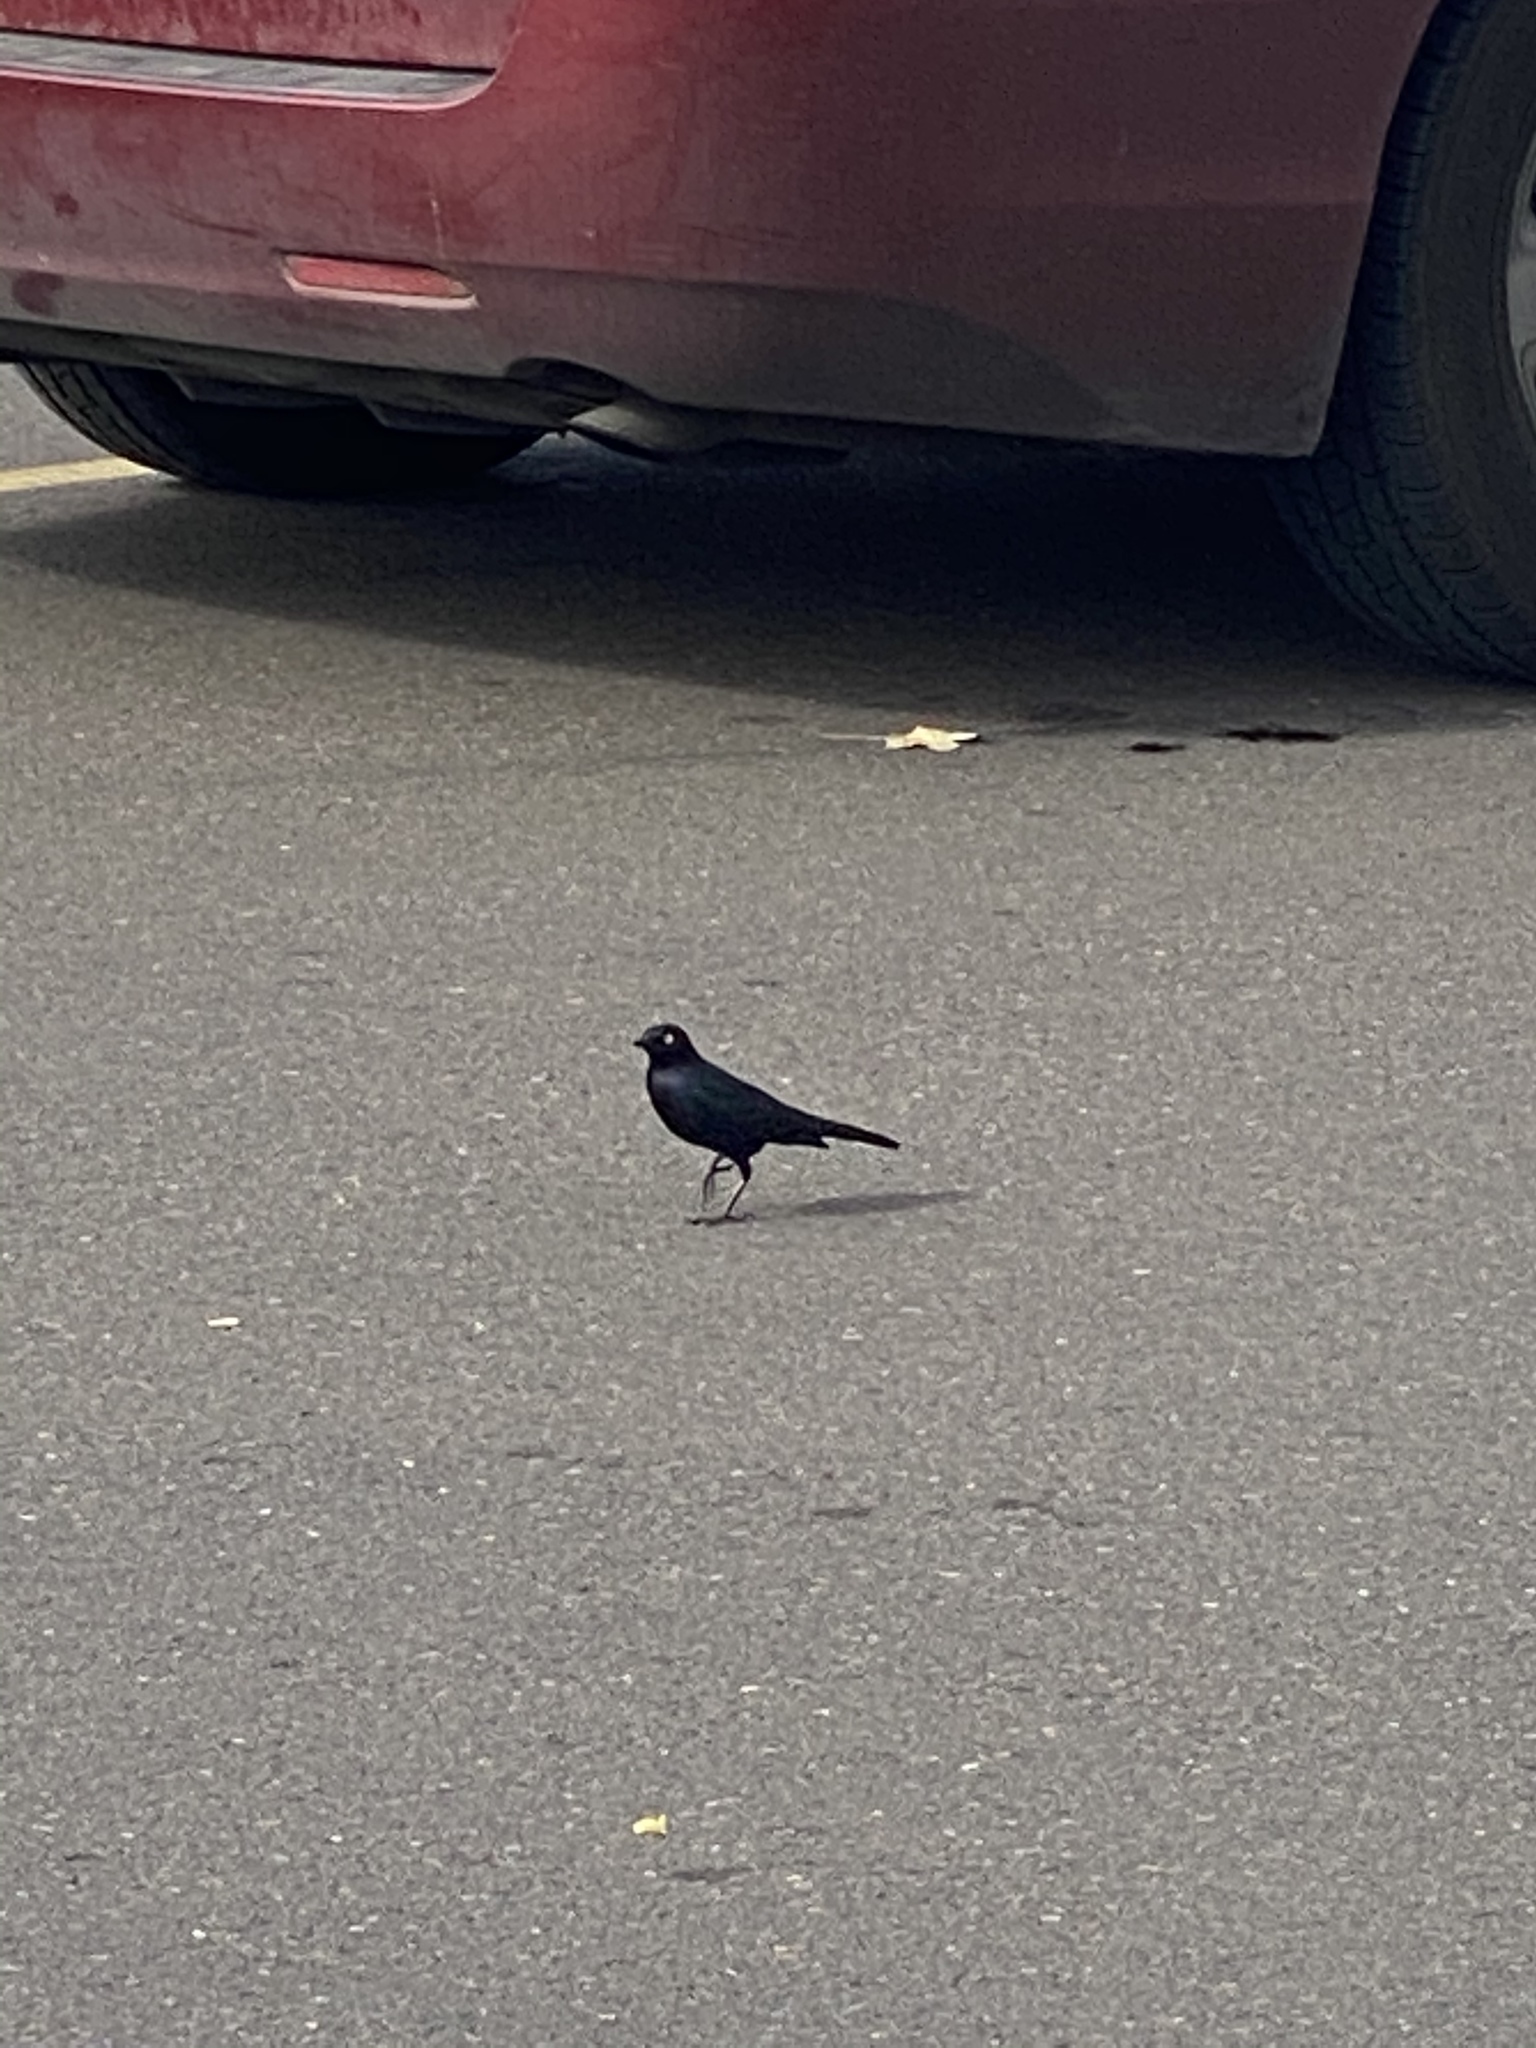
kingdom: Animalia
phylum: Chordata
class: Aves
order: Passeriformes
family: Icteridae
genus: Euphagus
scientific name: Euphagus cyanocephalus
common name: Brewer's blackbird
